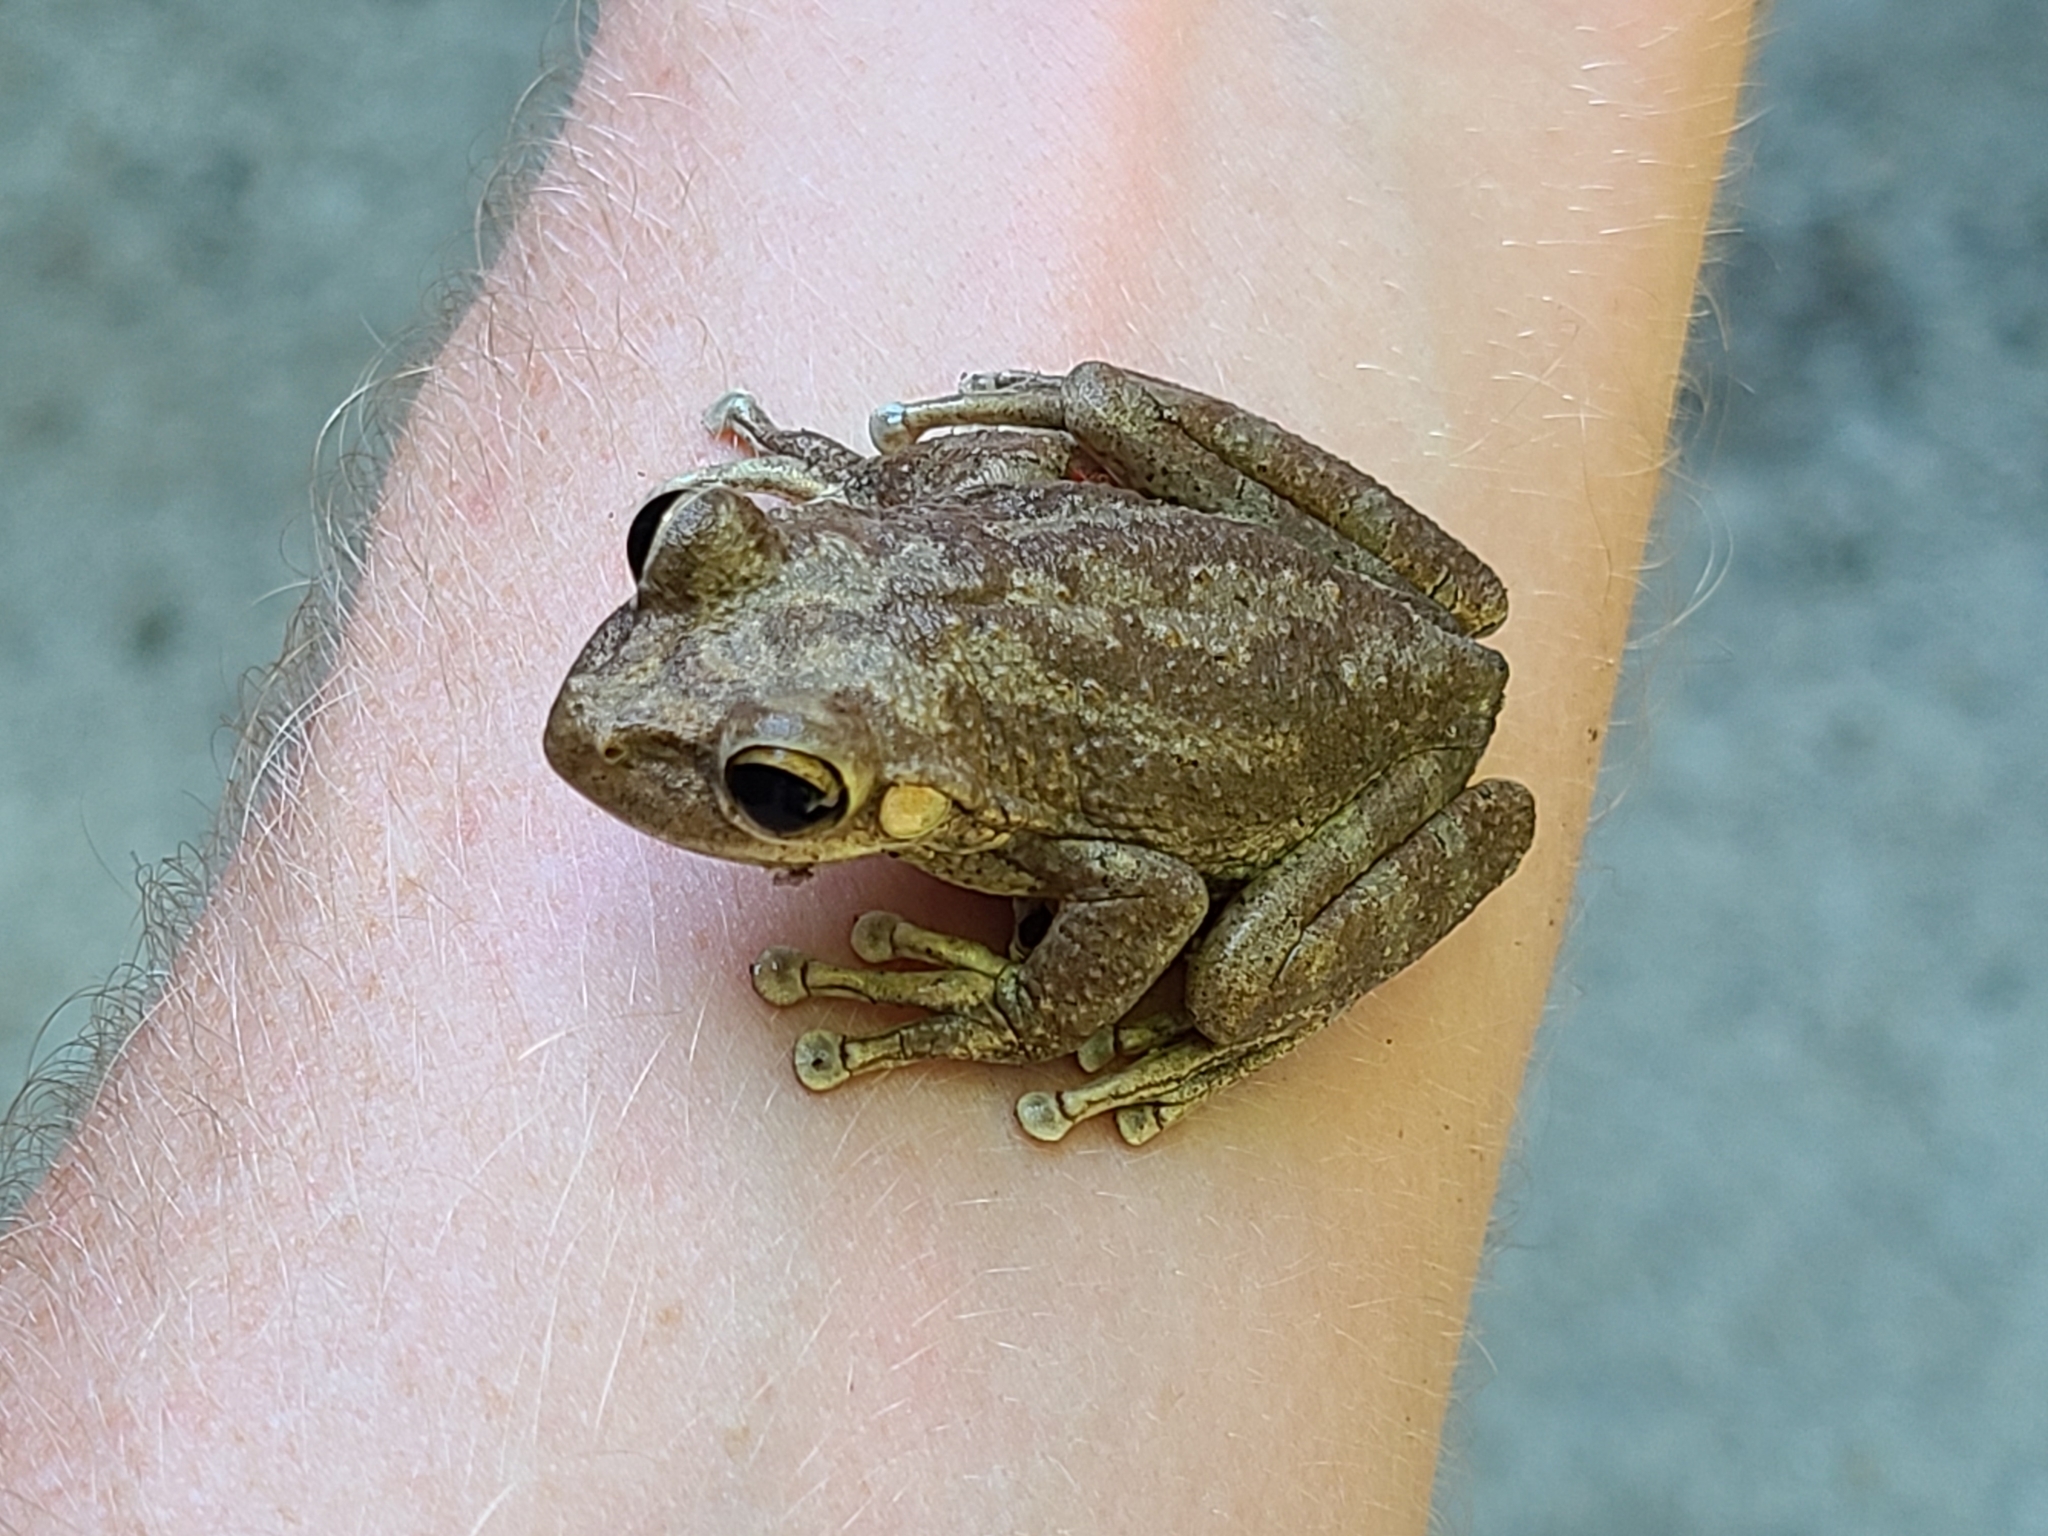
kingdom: Animalia
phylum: Chordata
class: Amphibia
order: Anura
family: Hylidae
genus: Osteopilus
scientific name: Osteopilus septentrionalis
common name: Cuban treefrog
